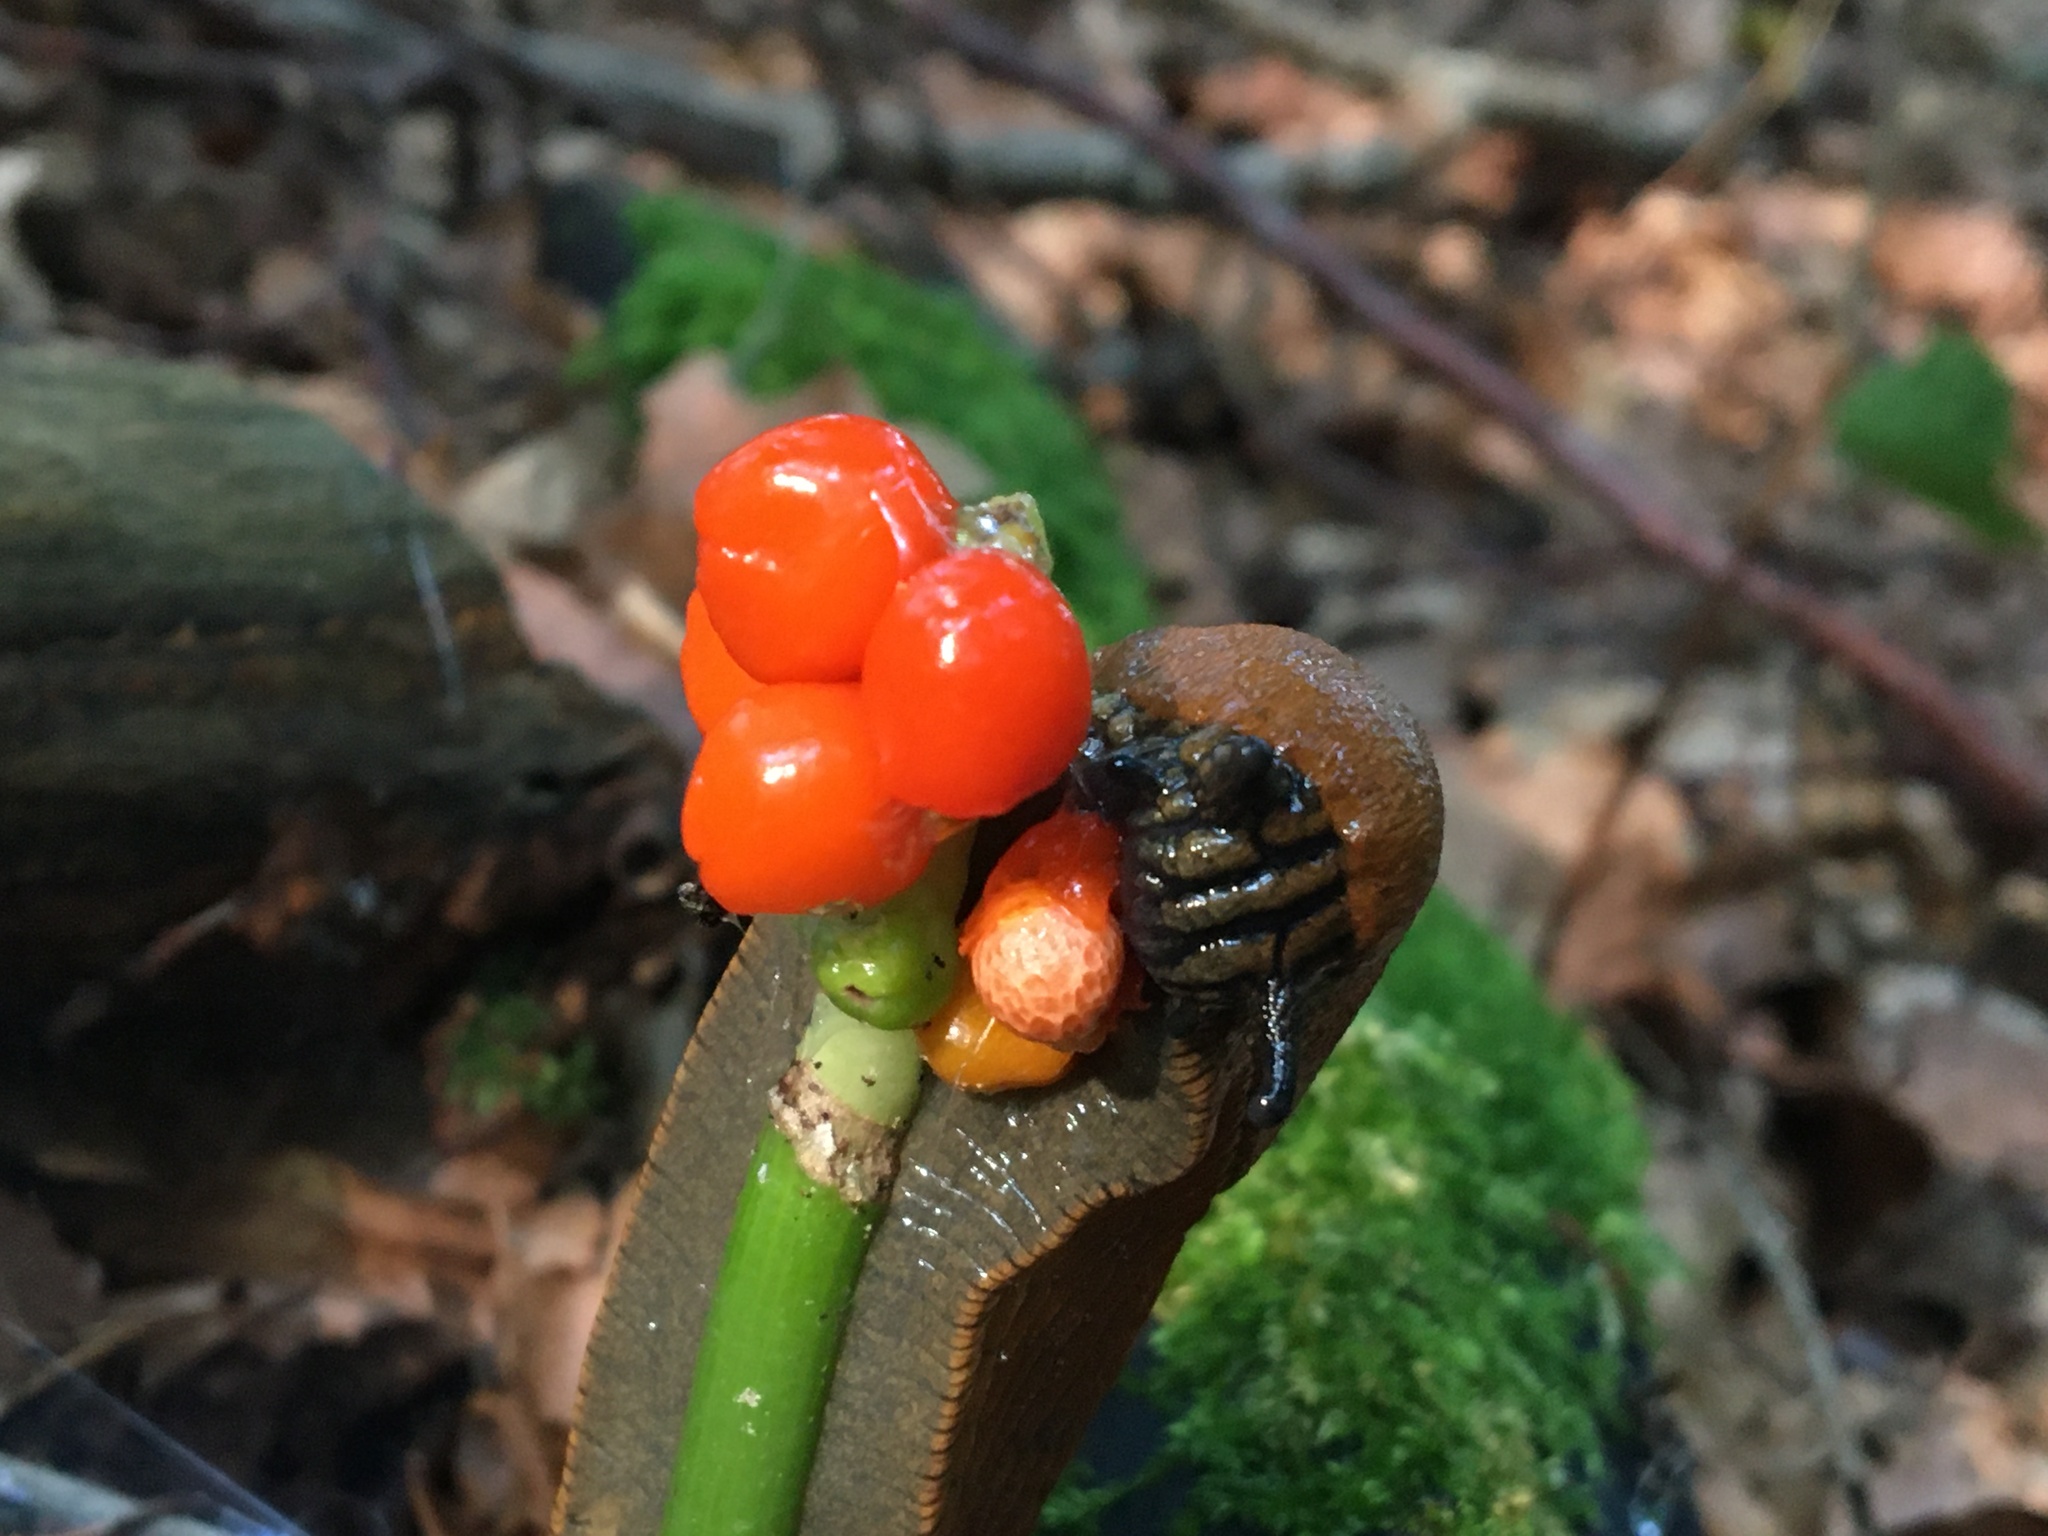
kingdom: Plantae
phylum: Tracheophyta
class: Liliopsida
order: Alismatales
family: Araceae
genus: Arum
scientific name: Arum maculatum
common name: Lords-and-ladies
